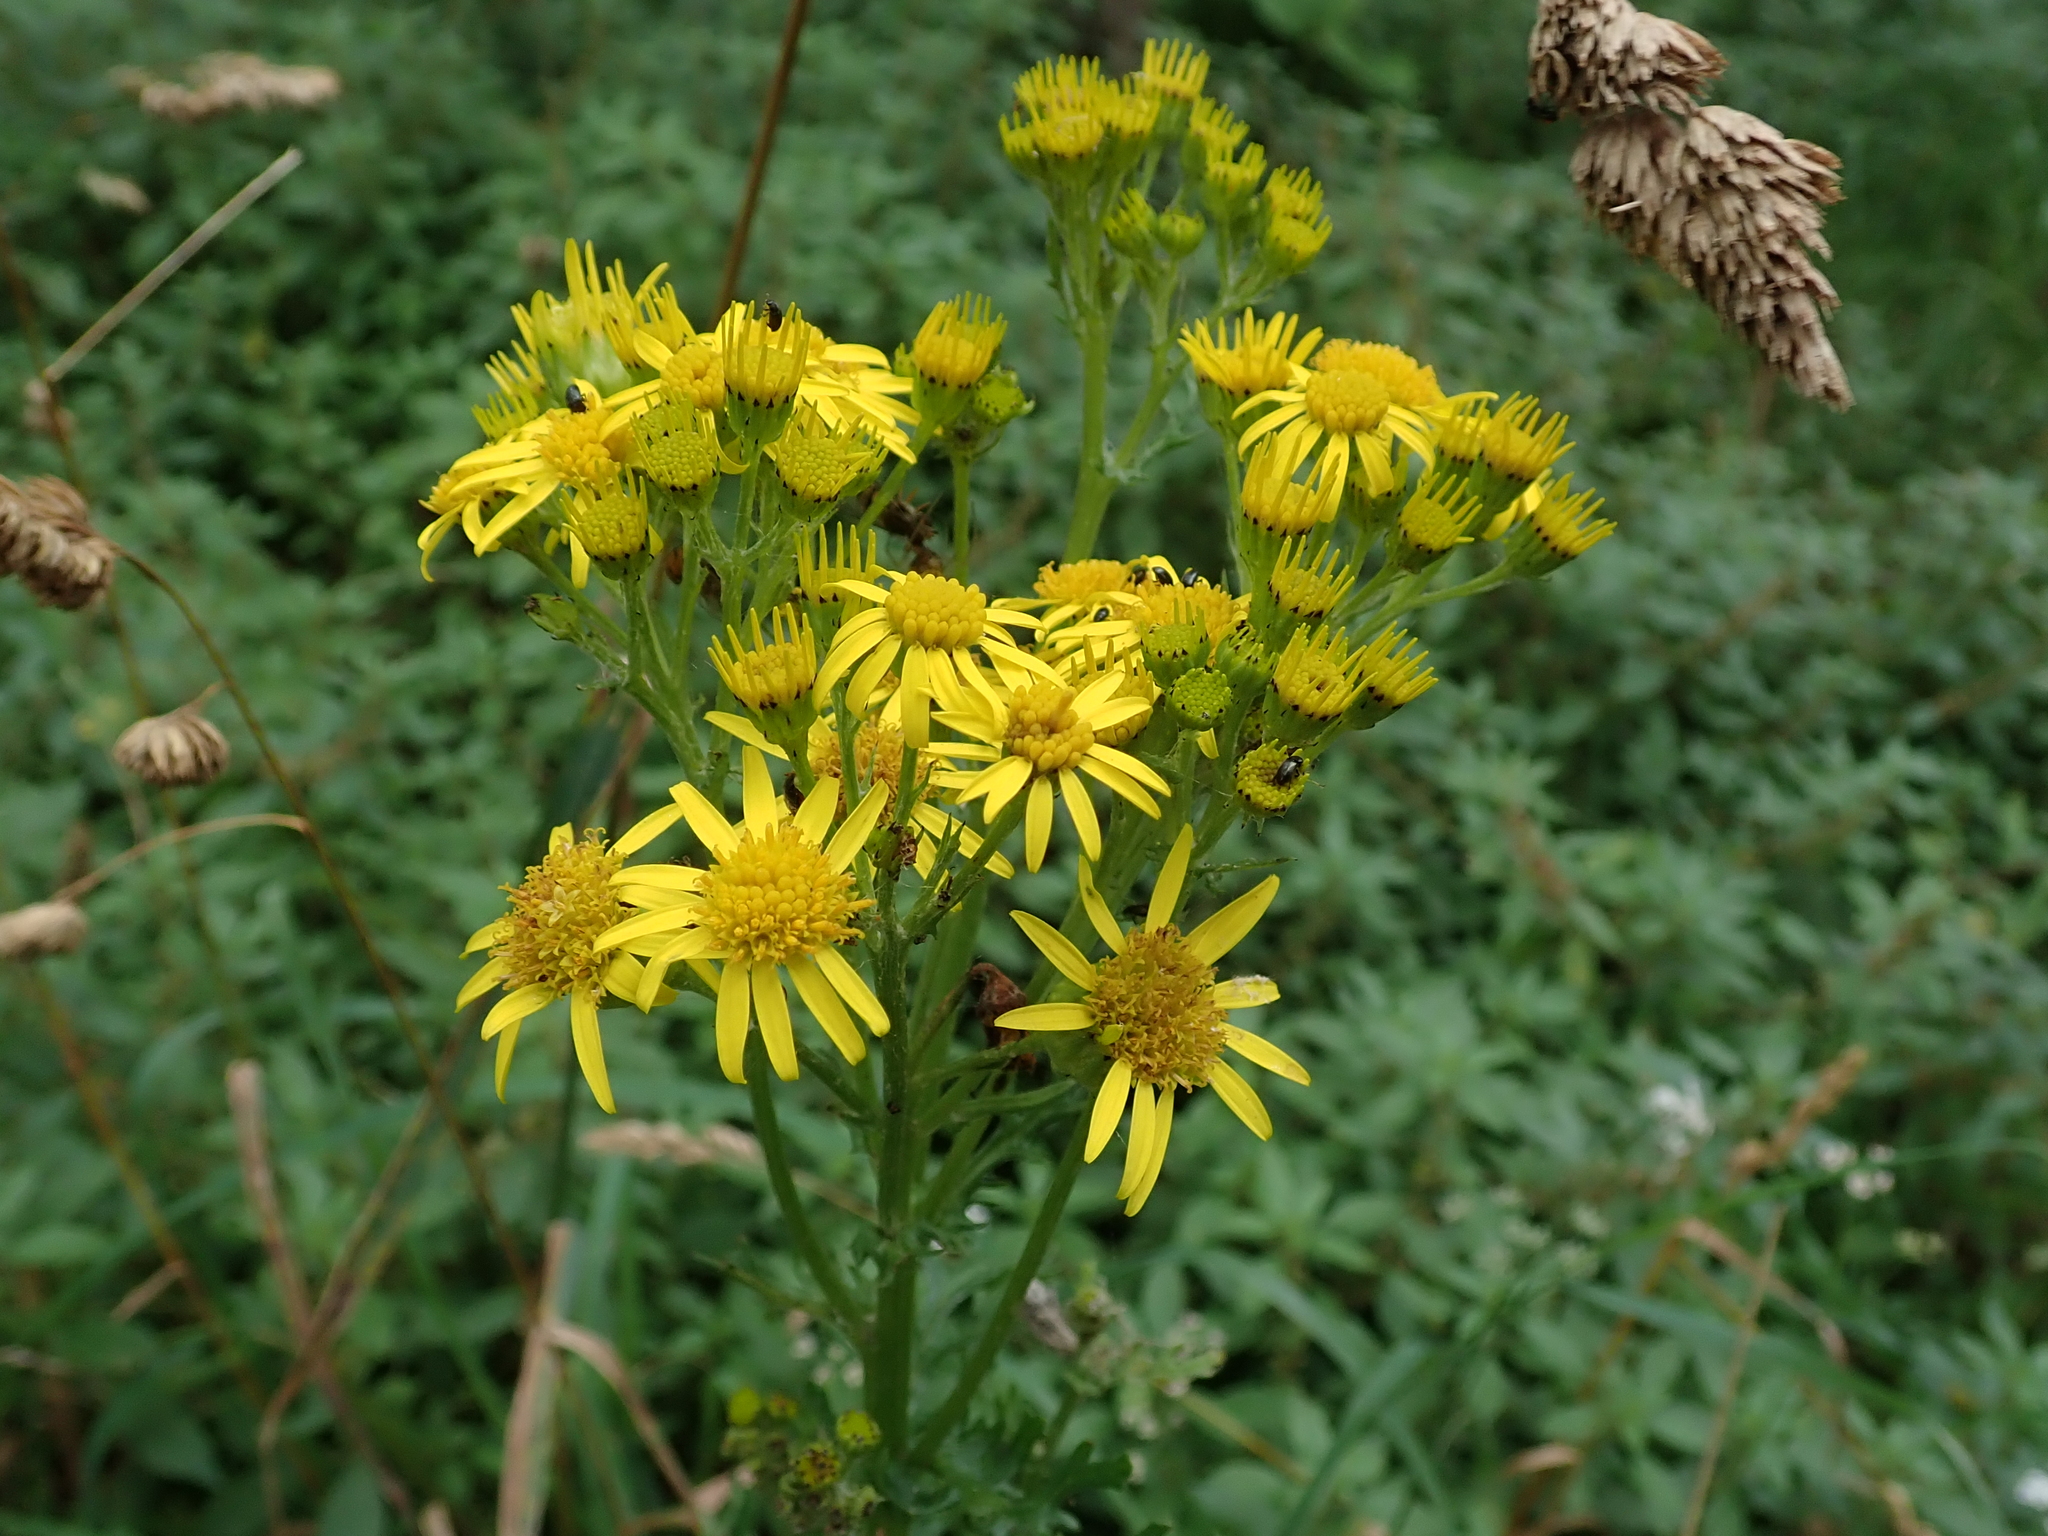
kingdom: Plantae
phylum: Tracheophyta
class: Magnoliopsida
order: Asterales
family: Asteraceae
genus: Jacobaea
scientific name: Jacobaea vulgaris
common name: Stinking willie
